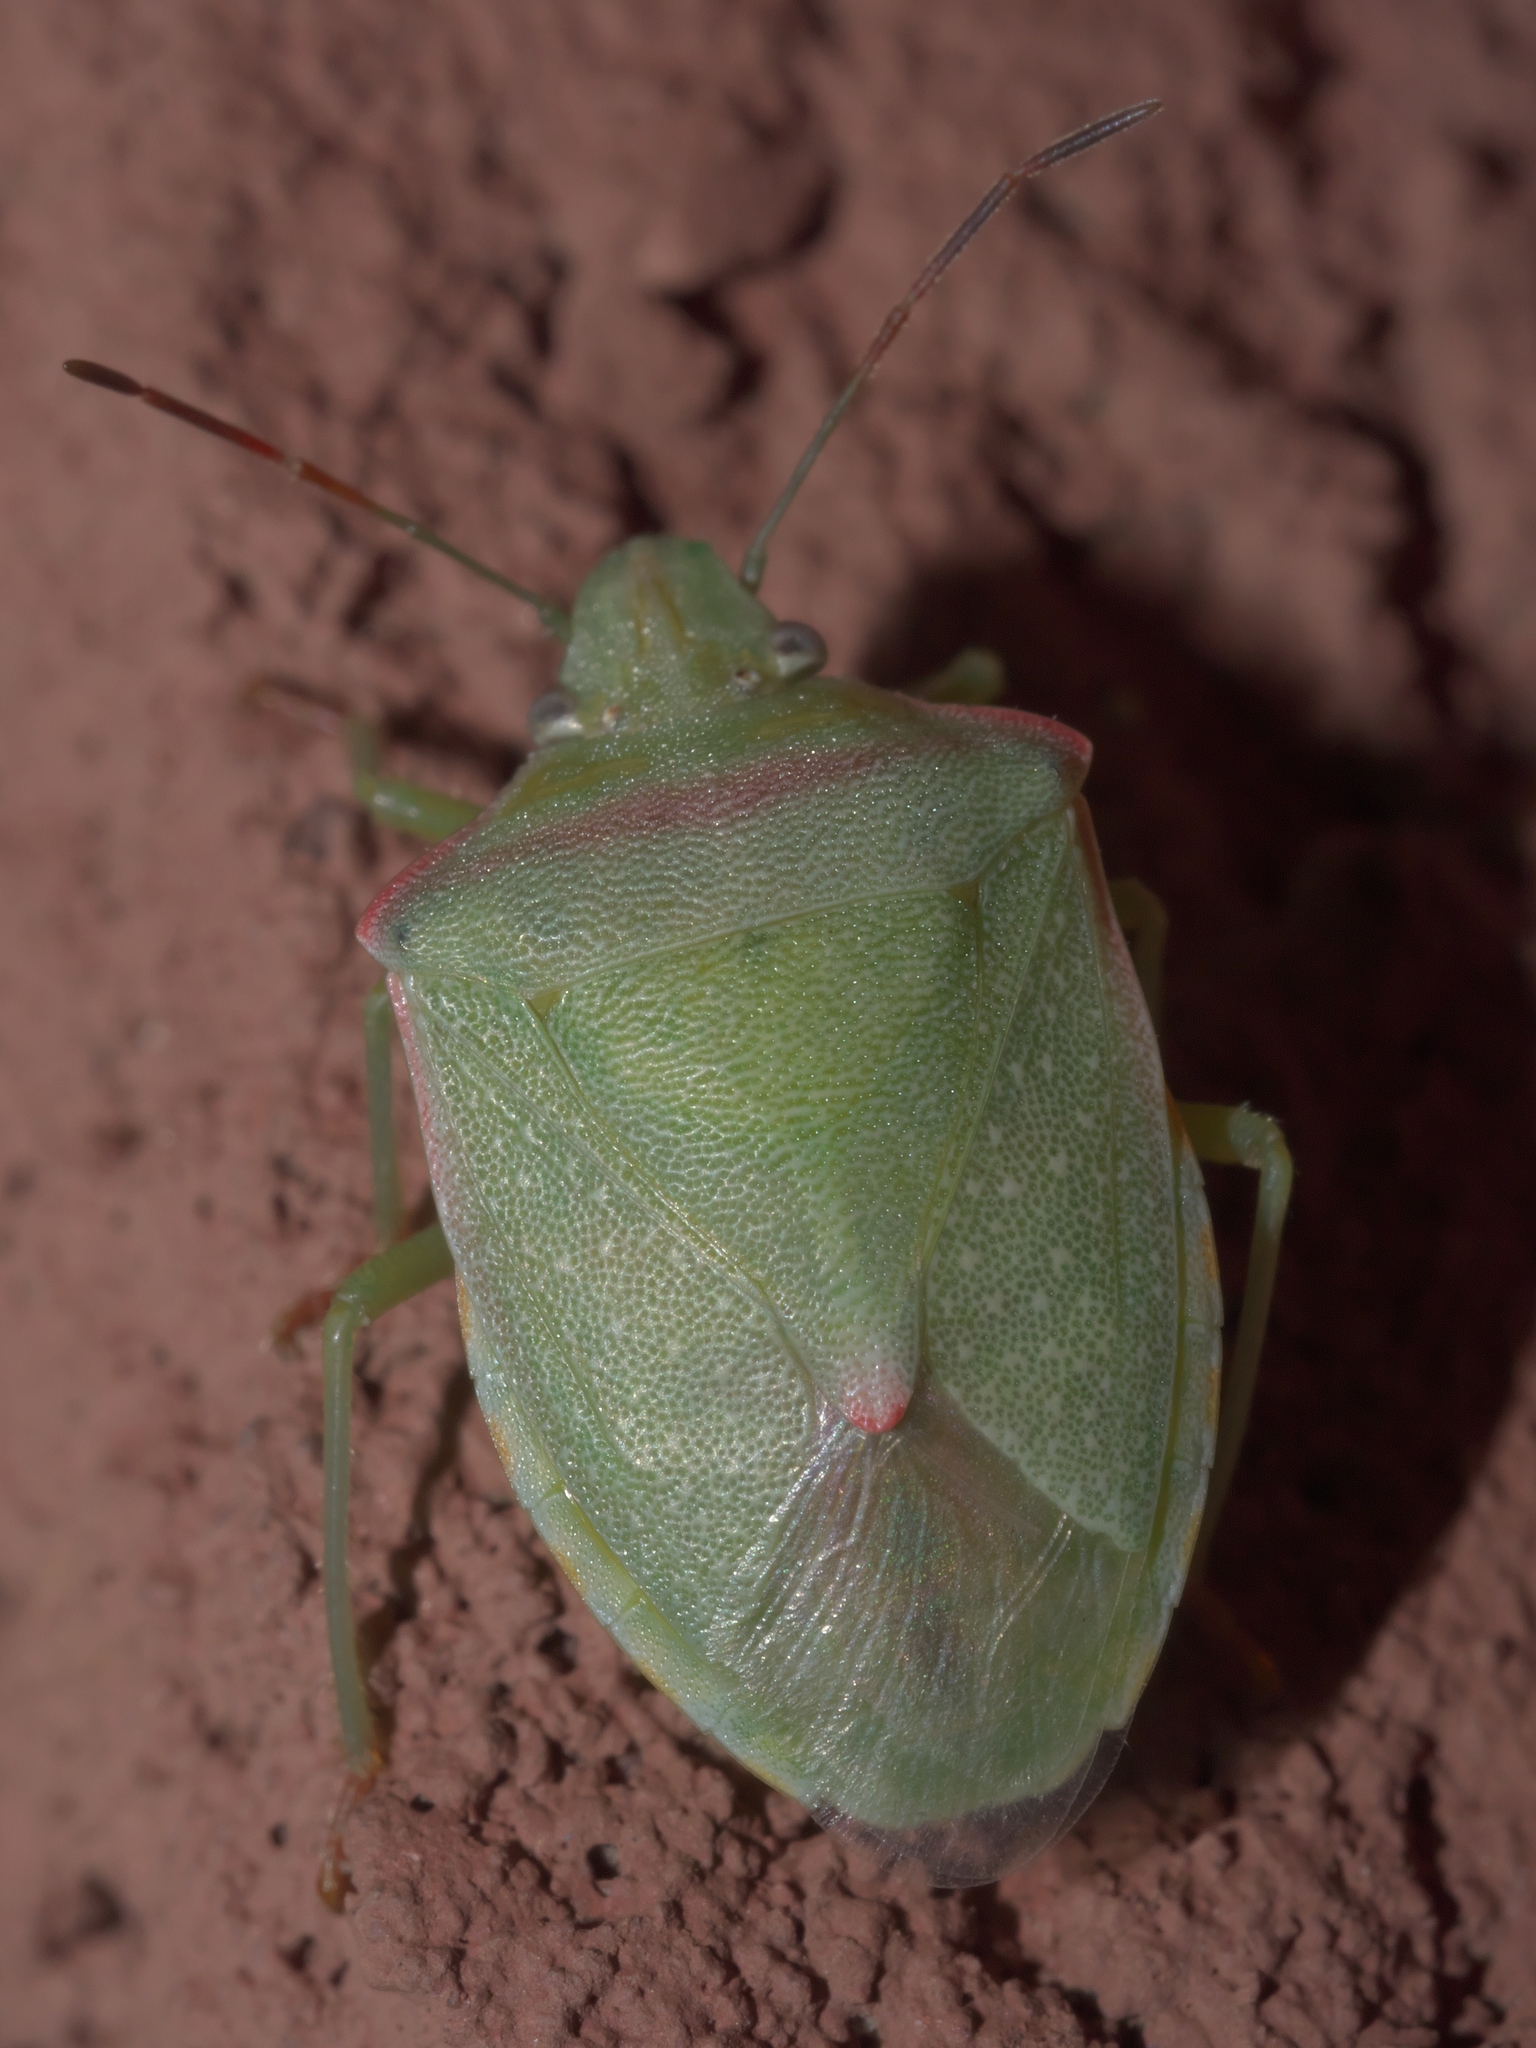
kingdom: Animalia
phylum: Arthropoda
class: Insecta
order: Hemiptera
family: Pentatomidae
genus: Thyanta
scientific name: Thyanta accerra
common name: Stink bug
